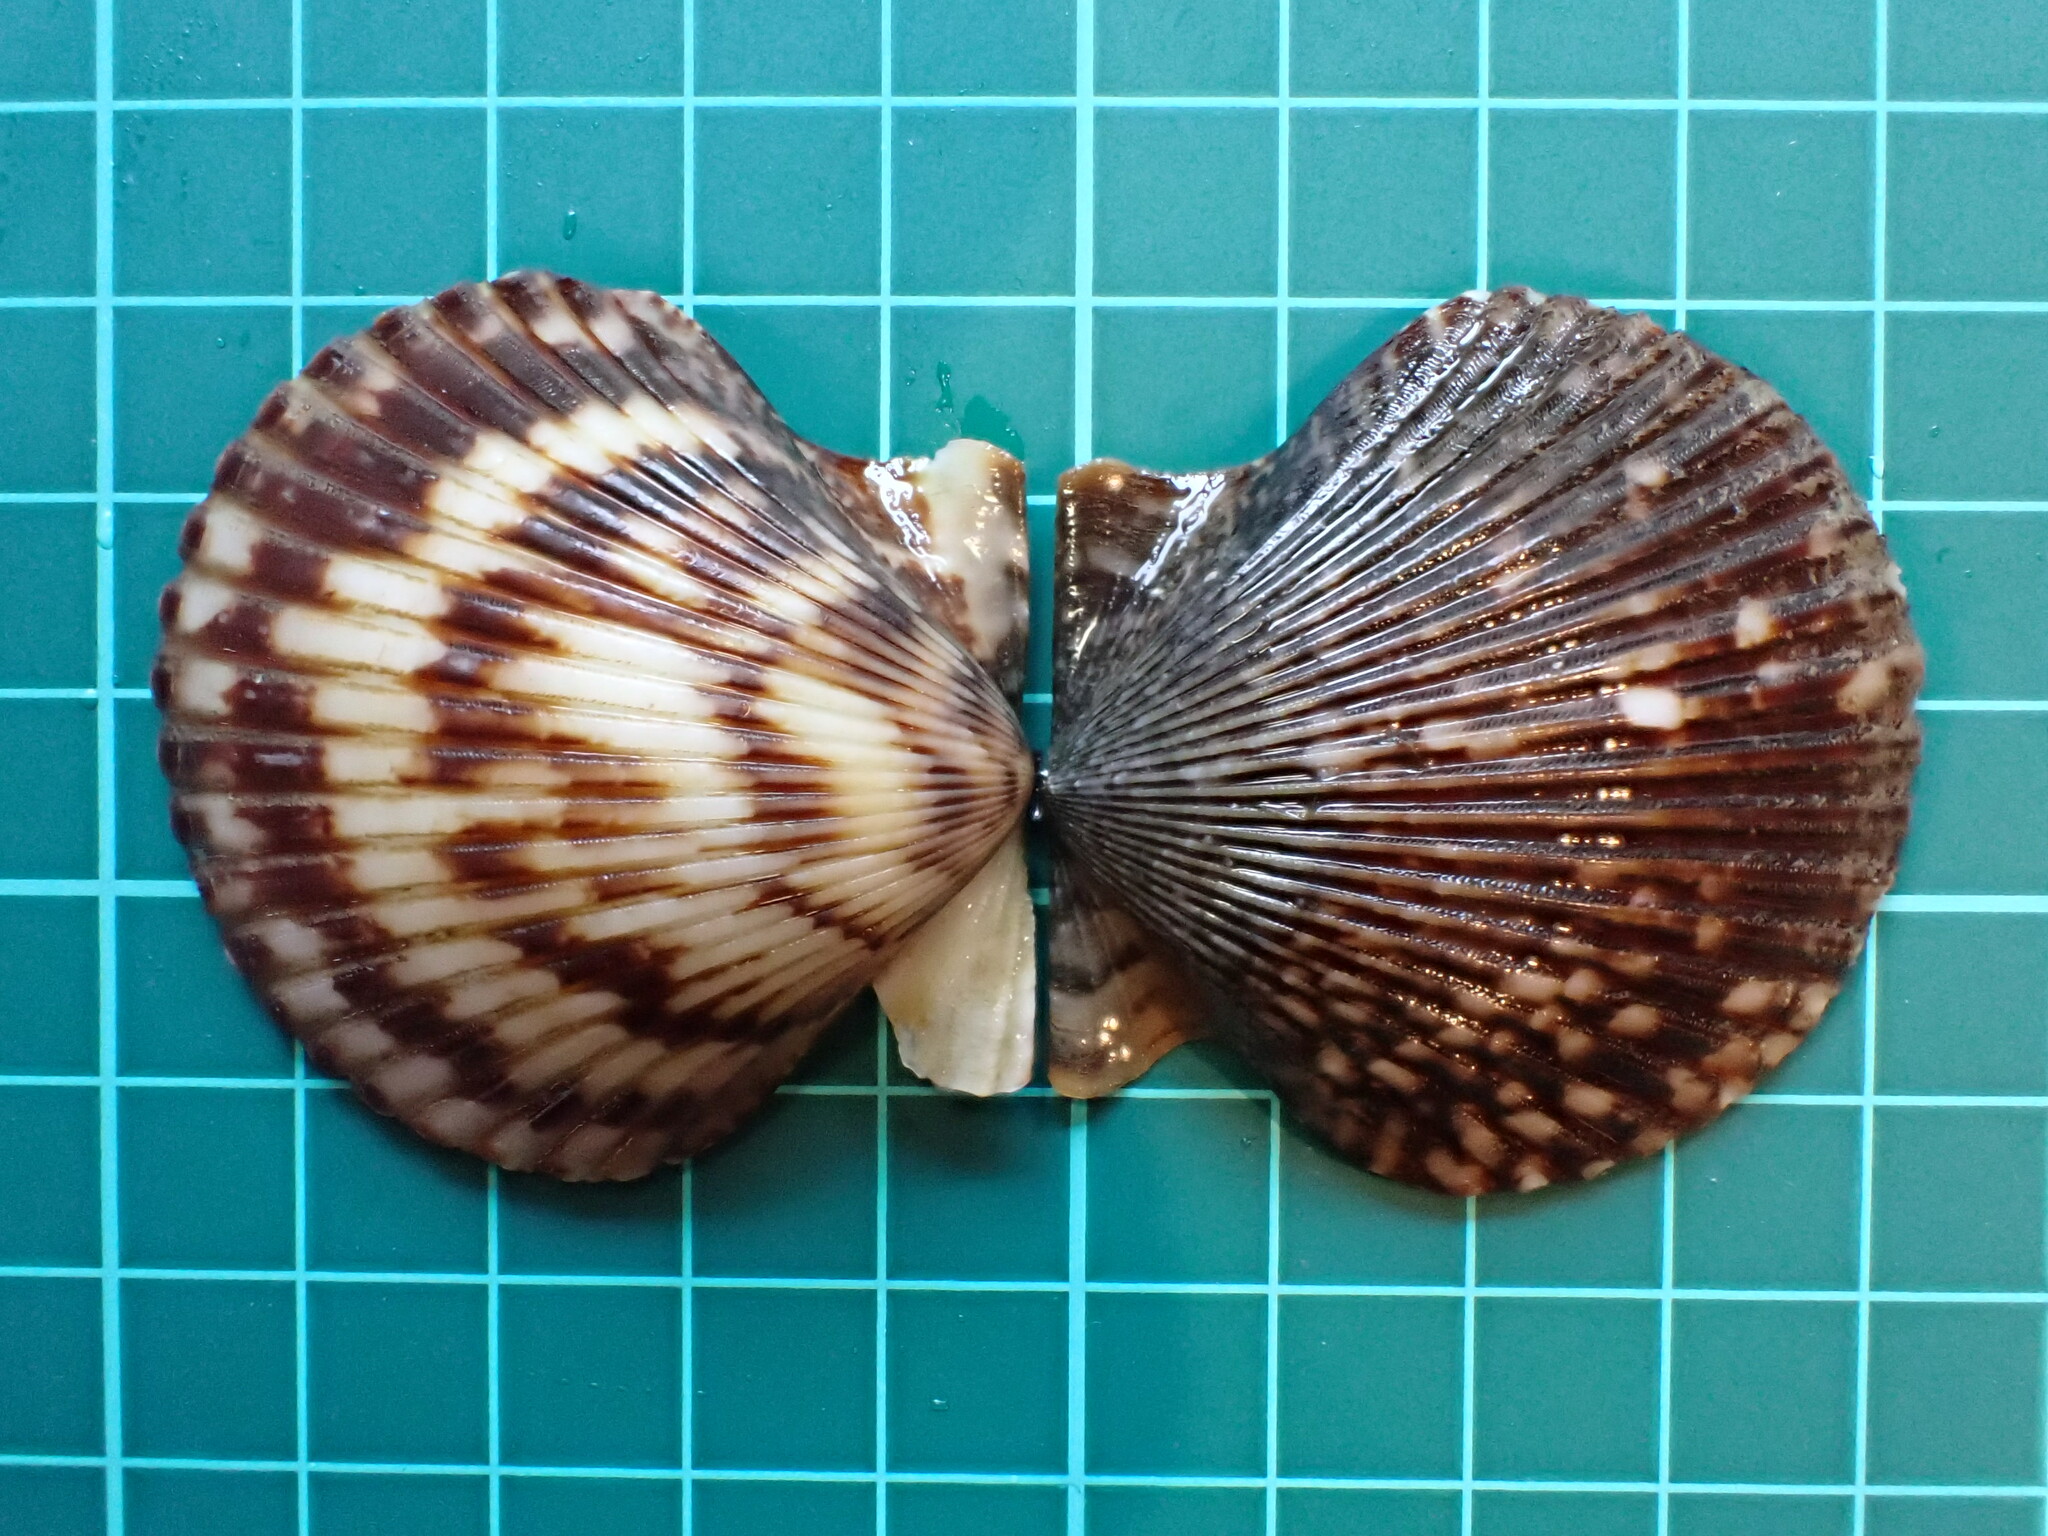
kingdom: Animalia
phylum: Mollusca
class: Bivalvia
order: Pectinida
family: Pectinidae
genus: Argopecten
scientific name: Argopecten ventricosus
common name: Catarina scallop
